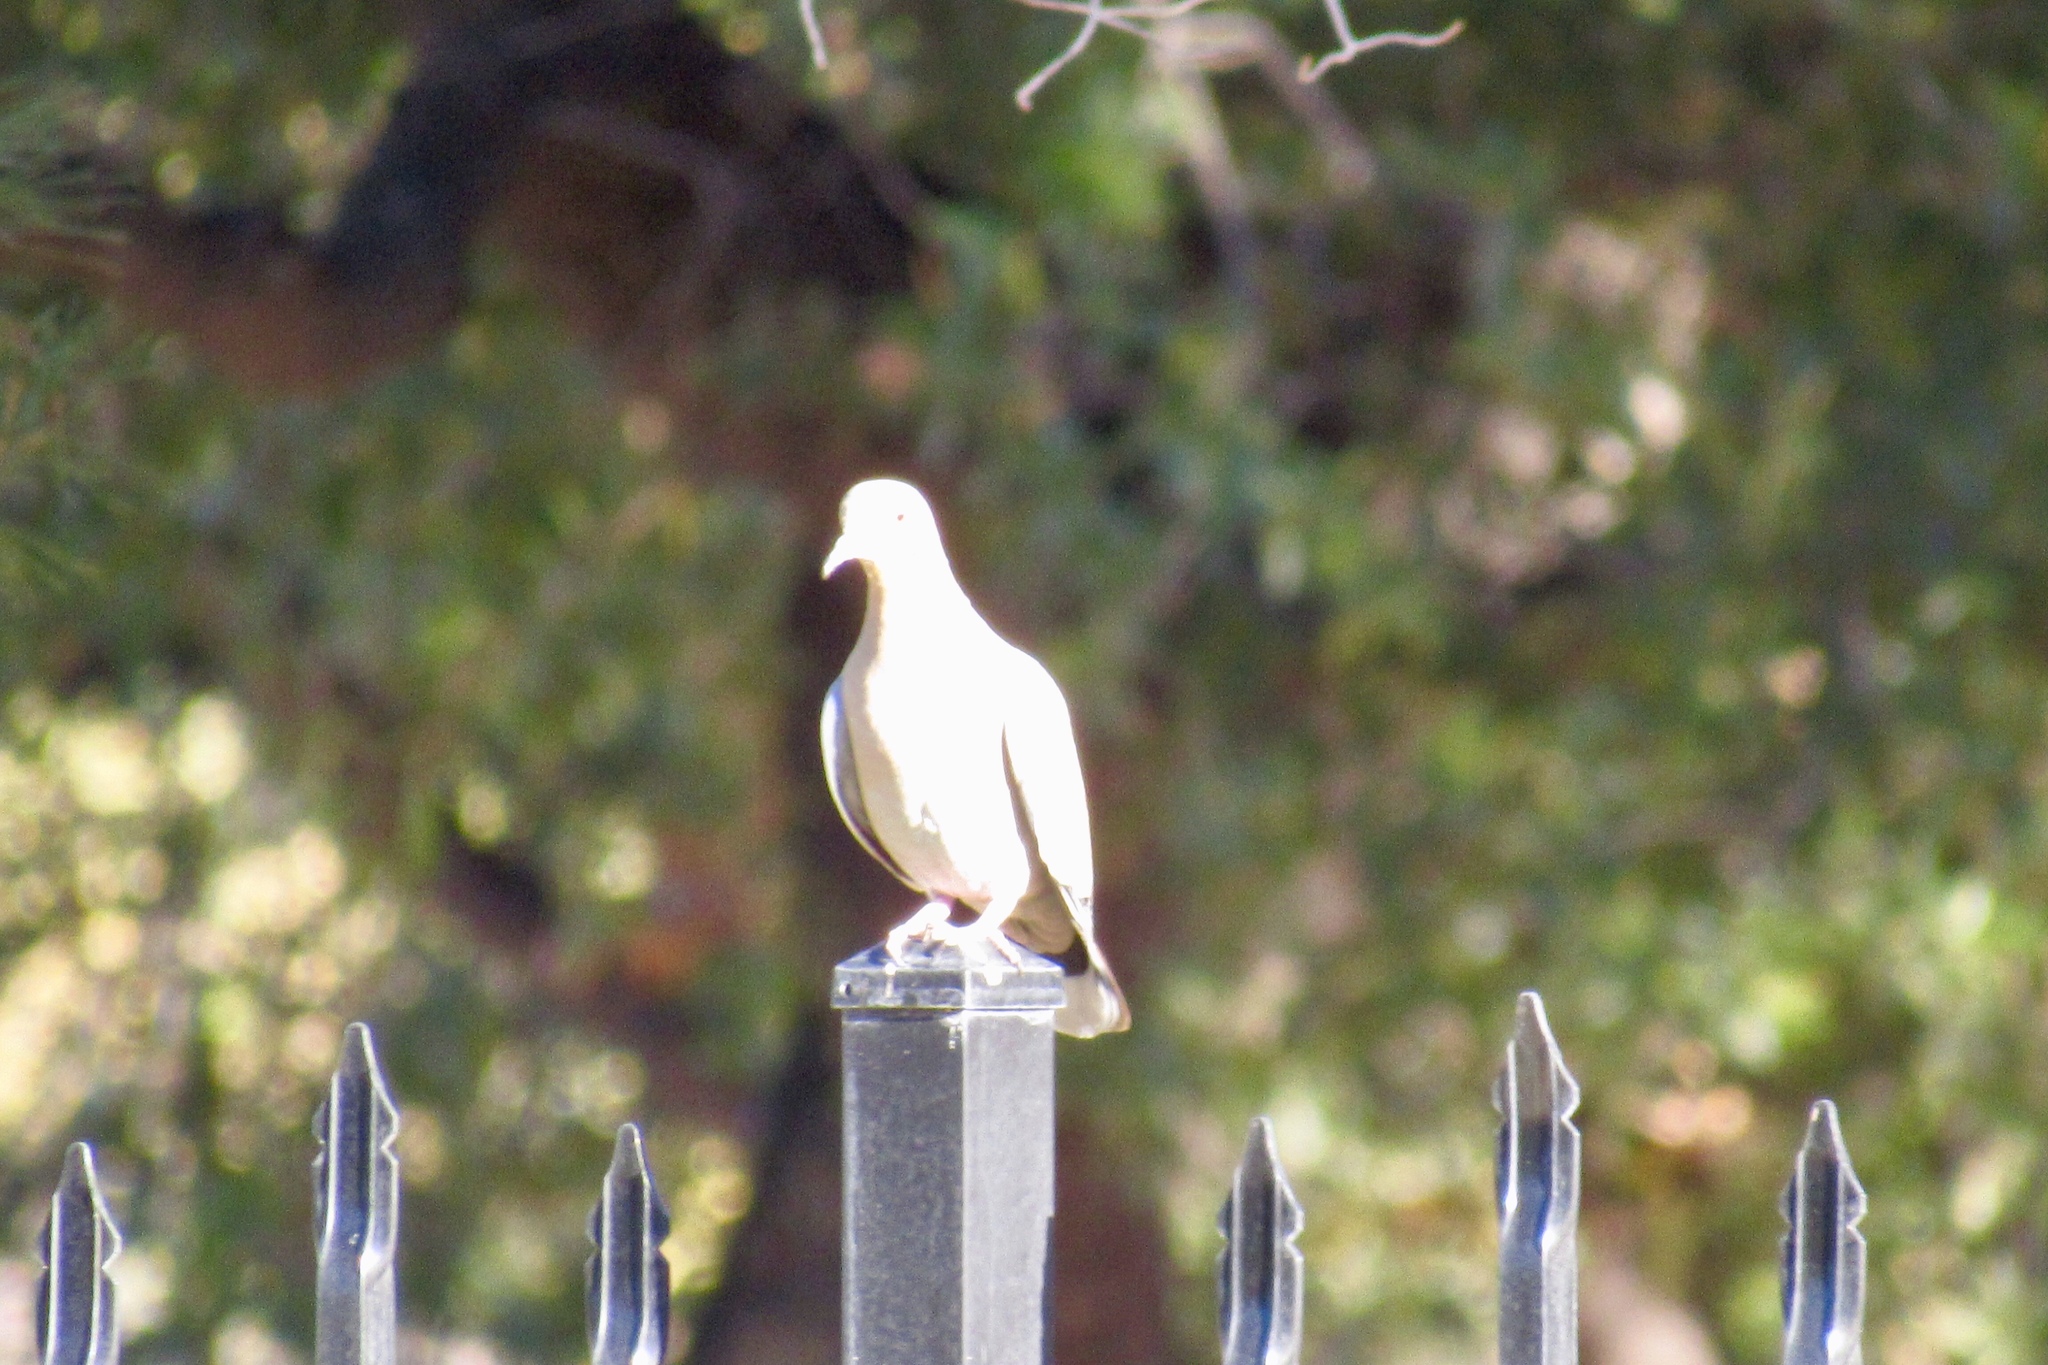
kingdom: Animalia
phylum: Chordata
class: Aves
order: Columbiformes
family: Columbidae
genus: Zenaida
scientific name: Zenaida asiatica
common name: White-winged dove
